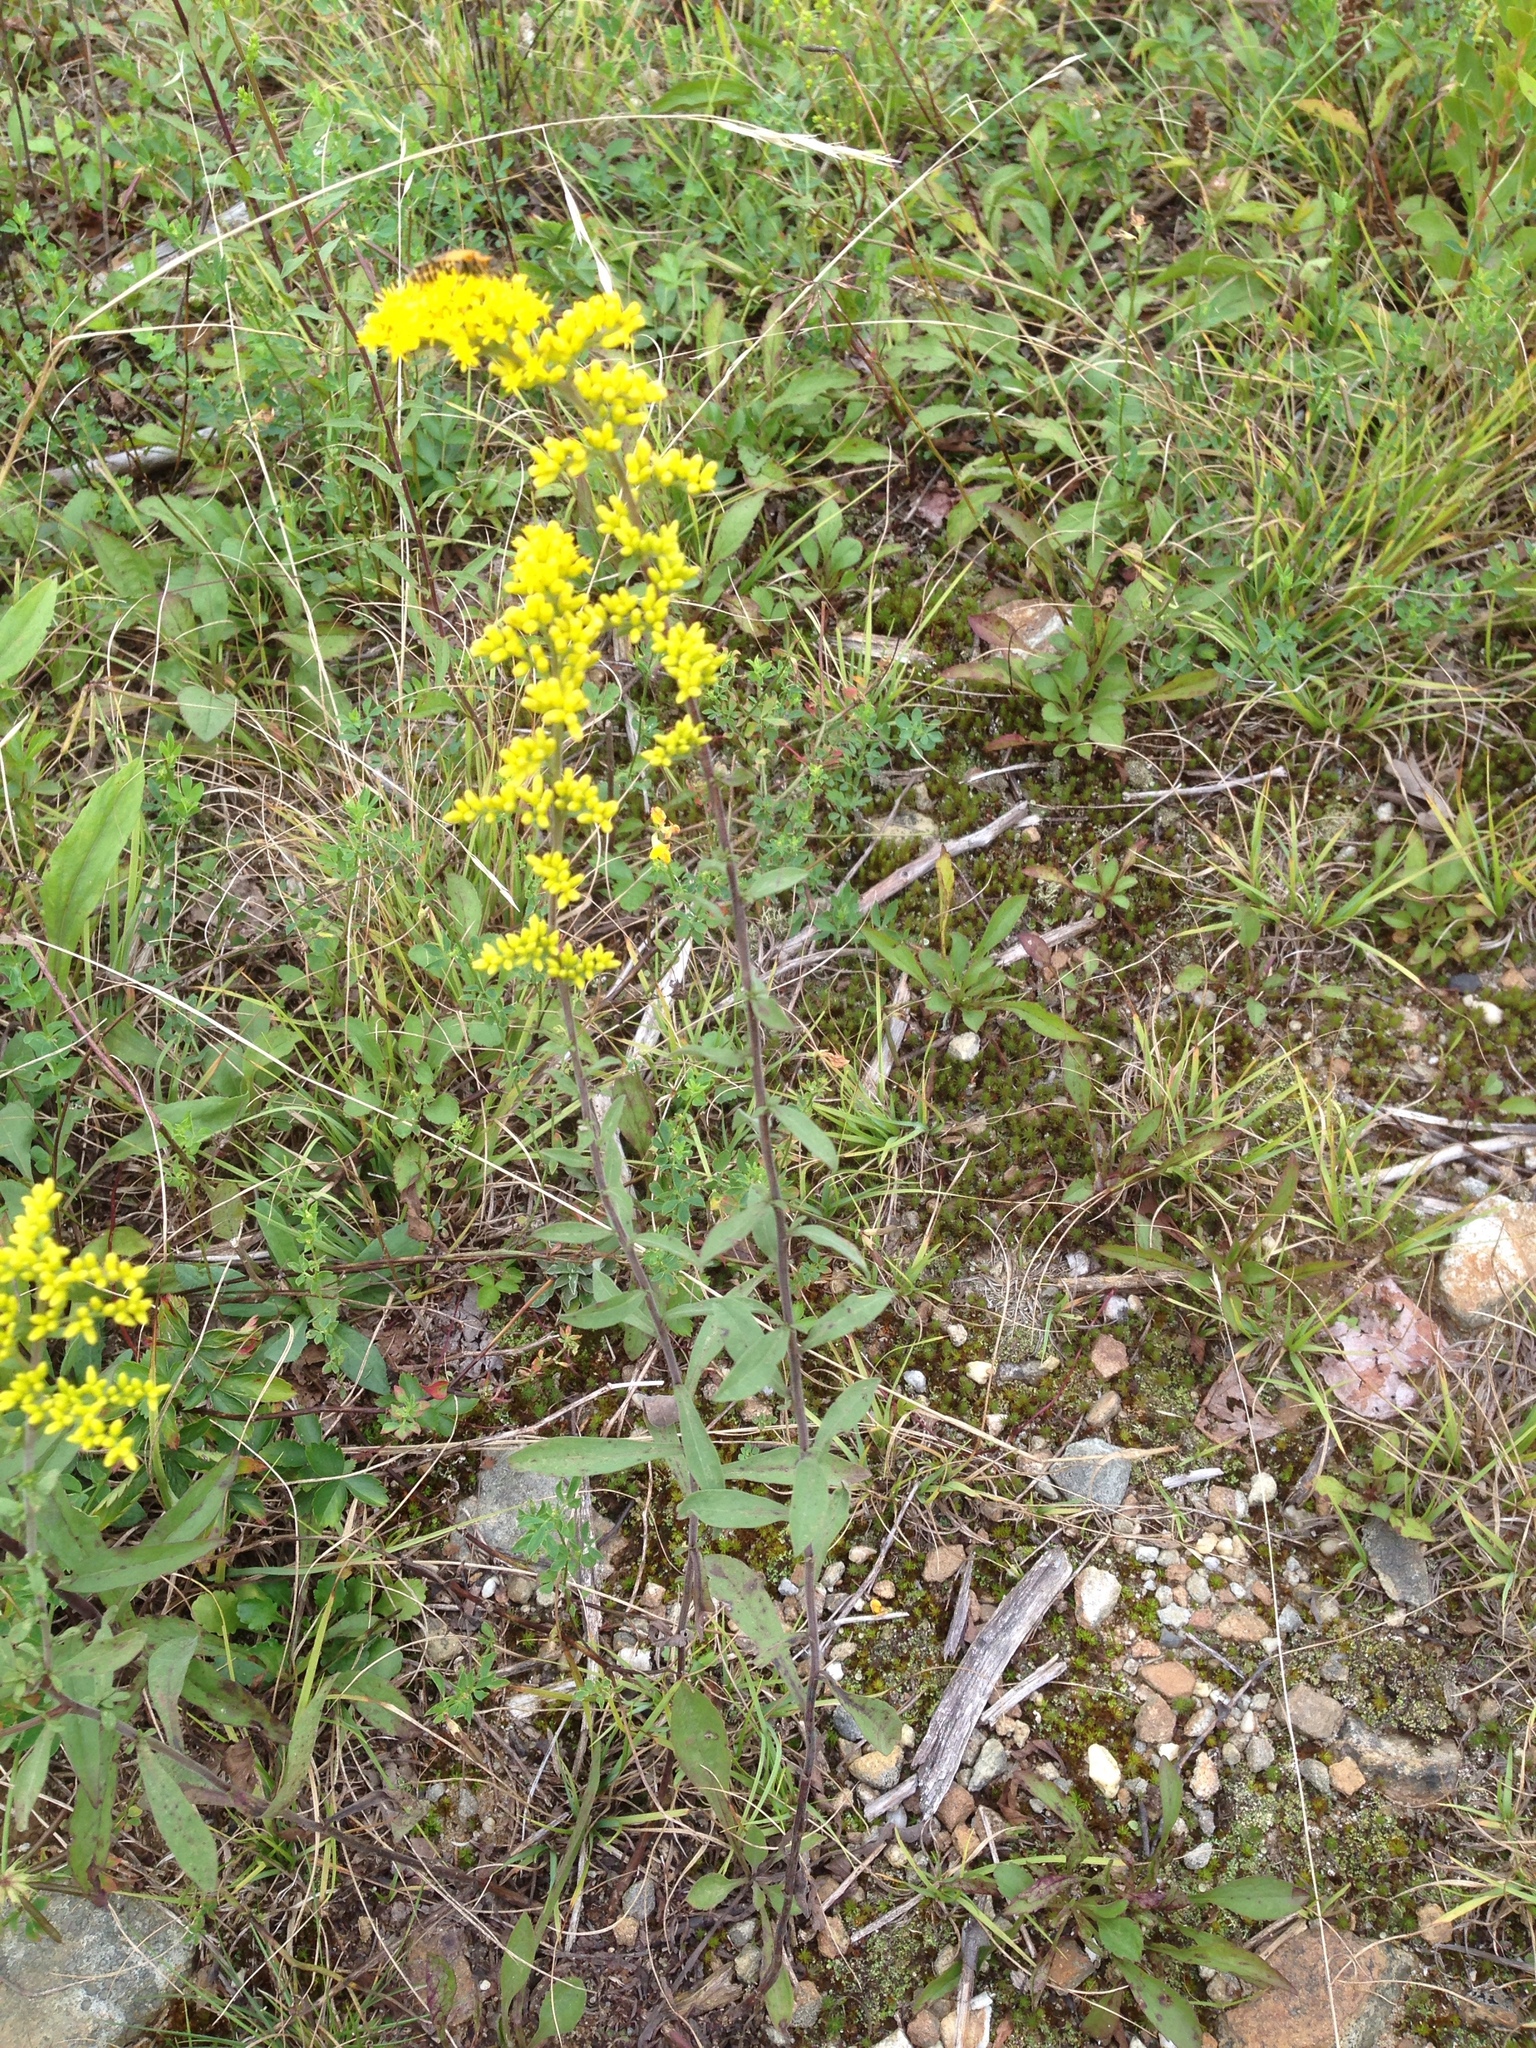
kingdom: Plantae
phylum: Tracheophyta
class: Magnoliopsida
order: Asterales
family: Asteraceae
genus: Solidago
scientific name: Solidago nemoralis
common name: Grey goldenrod
